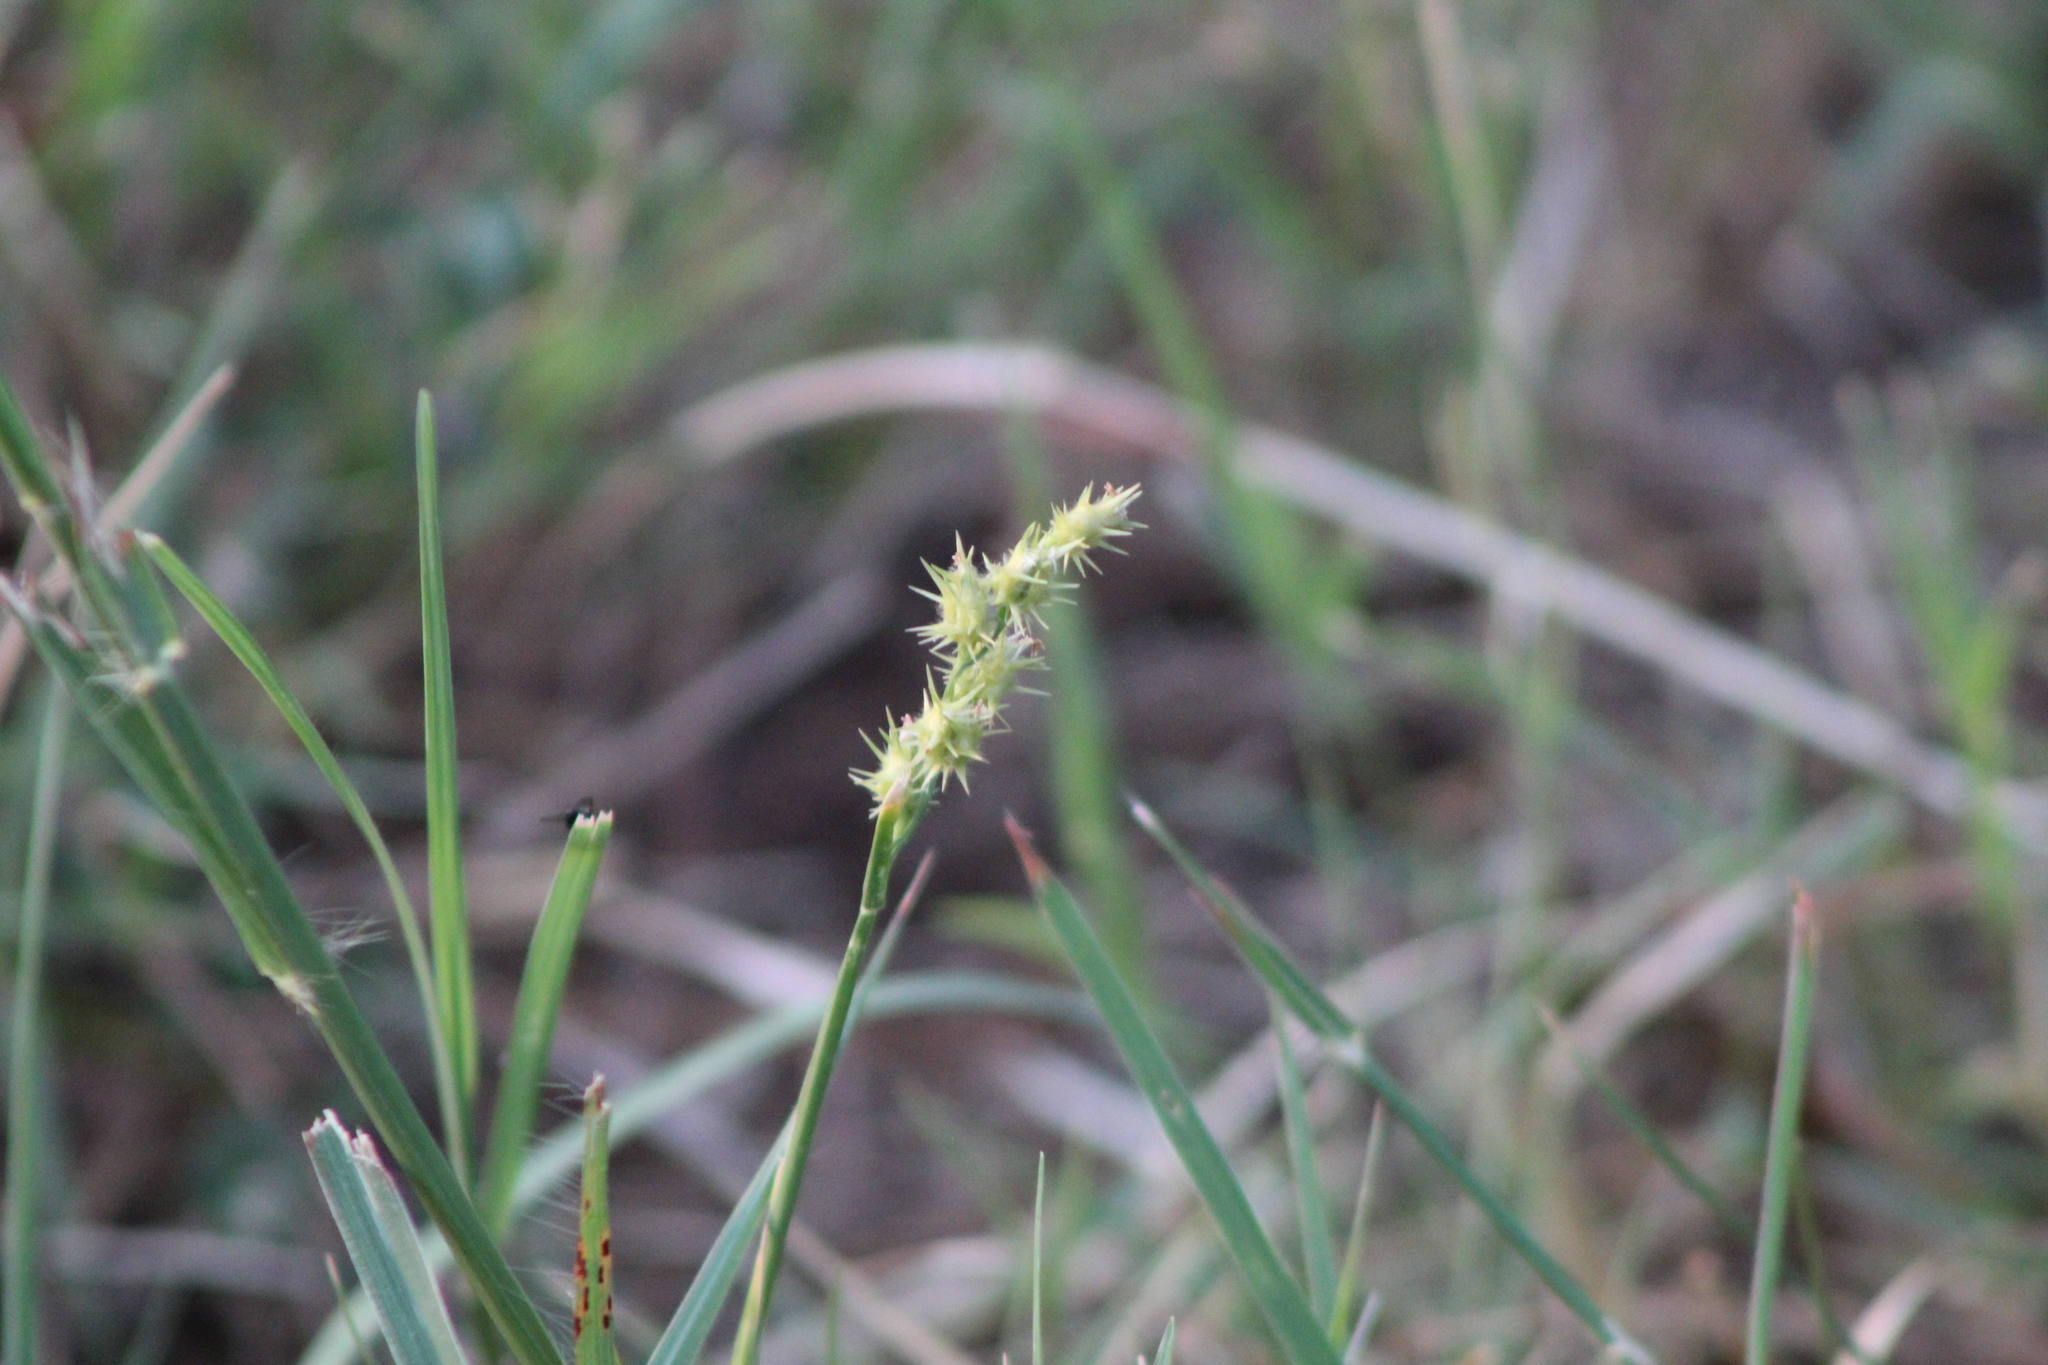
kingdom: Plantae
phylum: Tracheophyta
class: Liliopsida
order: Poales
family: Poaceae
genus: Cenchrus
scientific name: Cenchrus spinifex
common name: Coast sandbur
